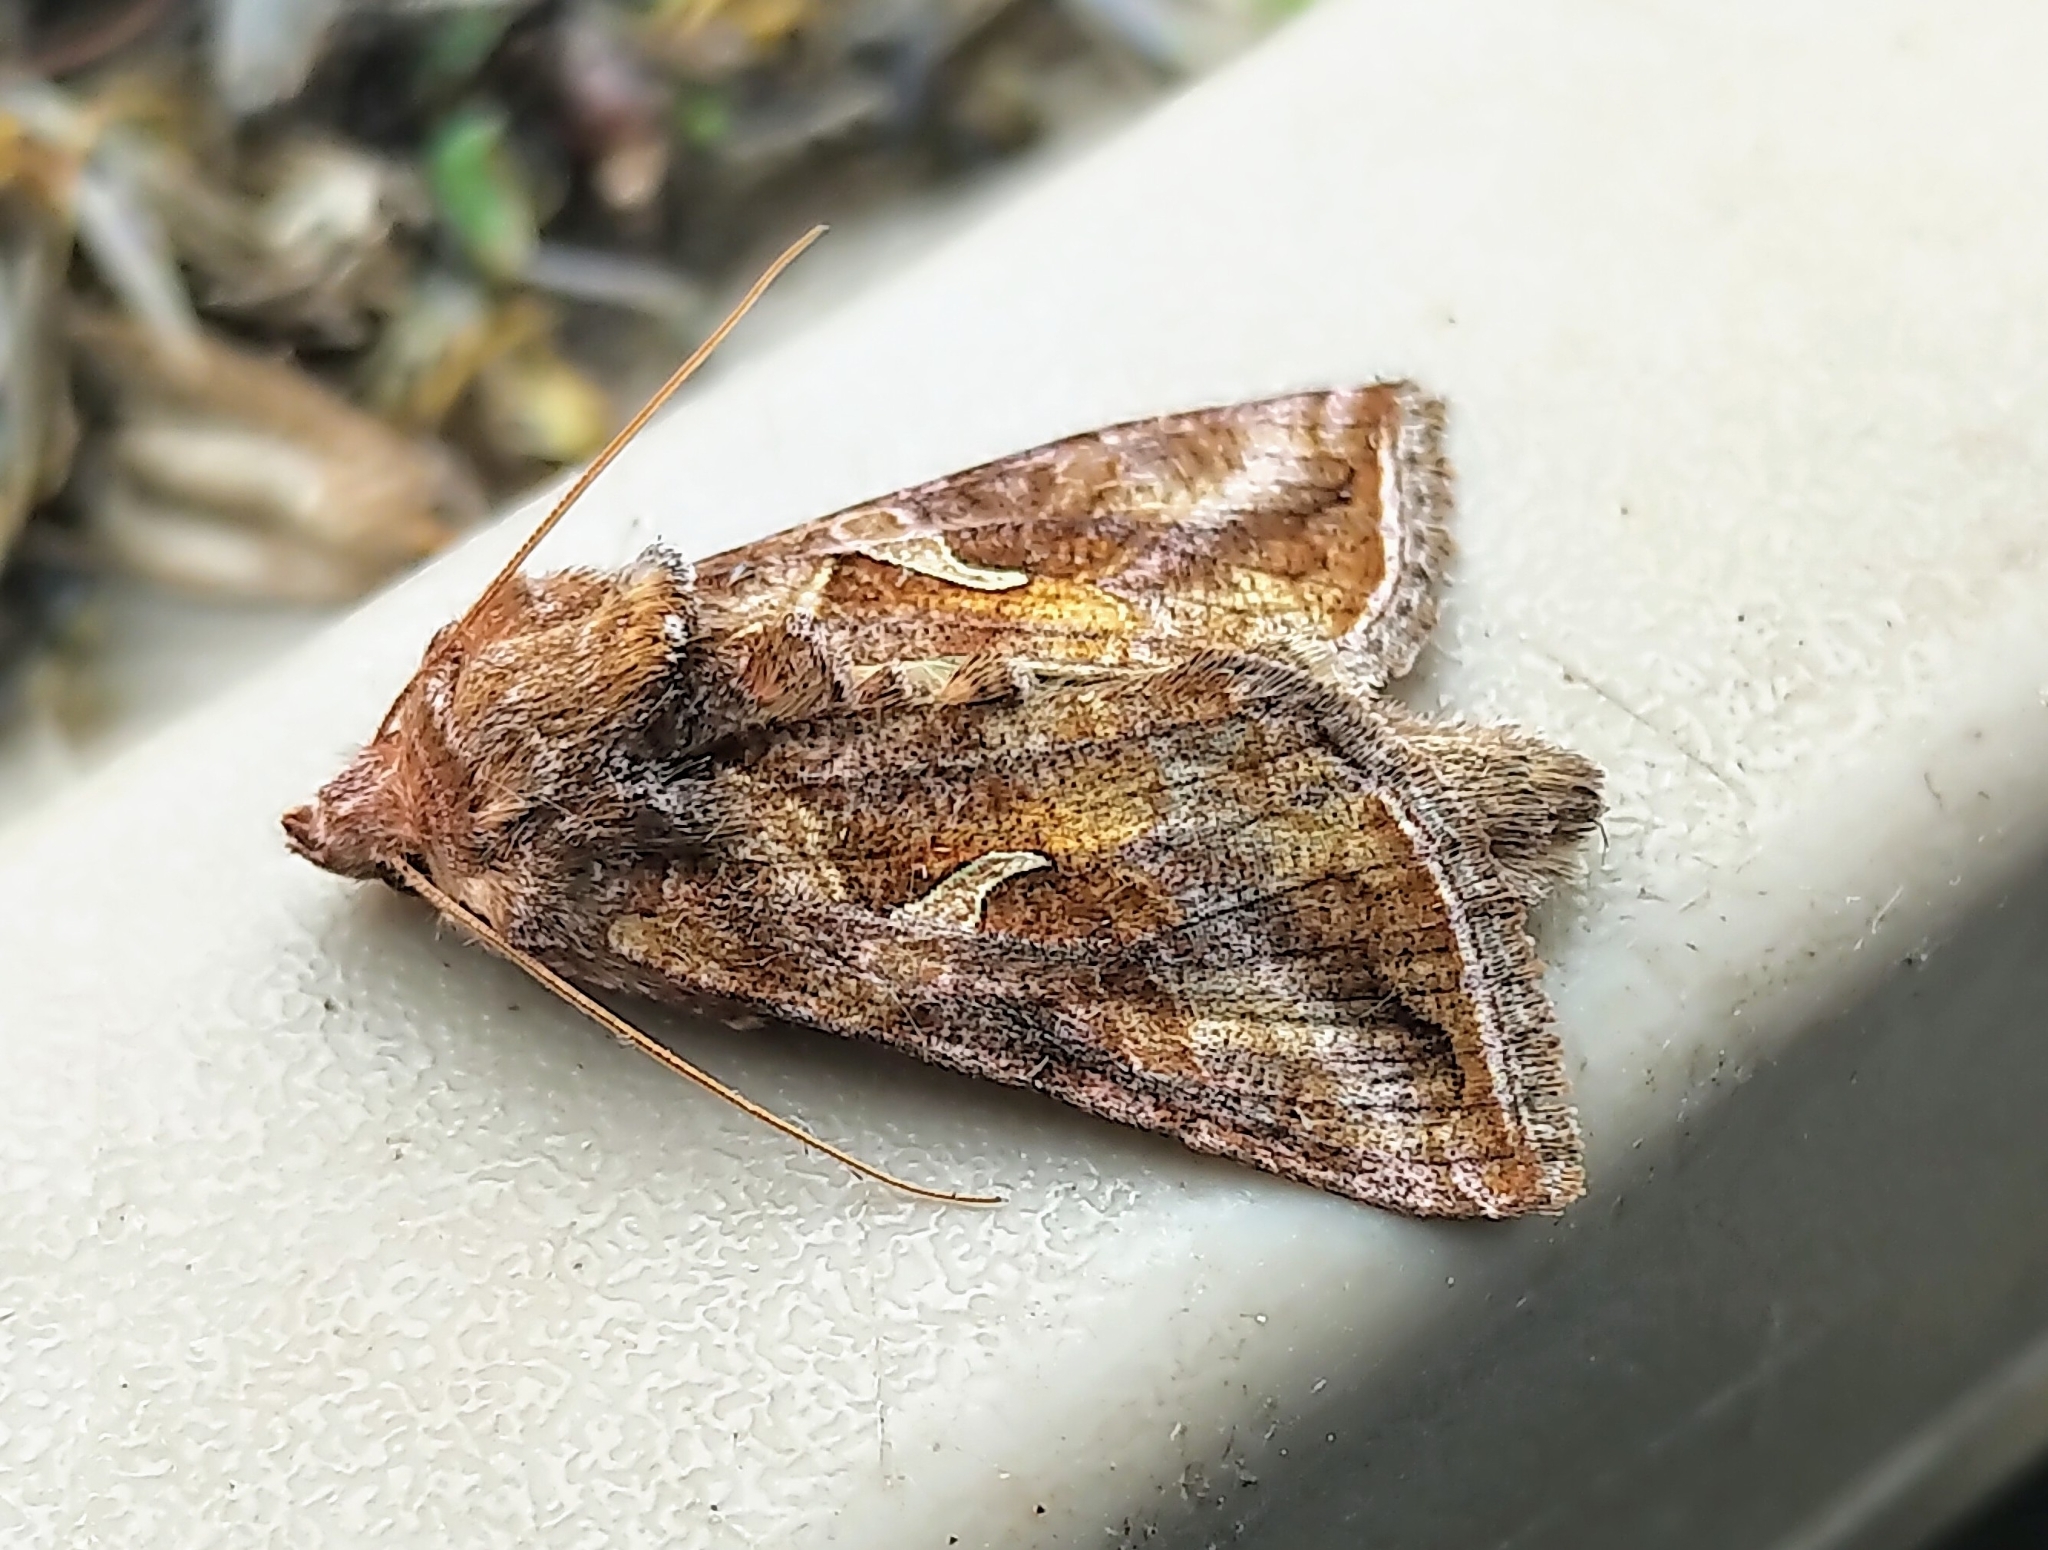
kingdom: Animalia
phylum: Arthropoda
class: Insecta
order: Lepidoptera
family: Noctuidae
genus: Autographa
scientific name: Autographa rubidus
